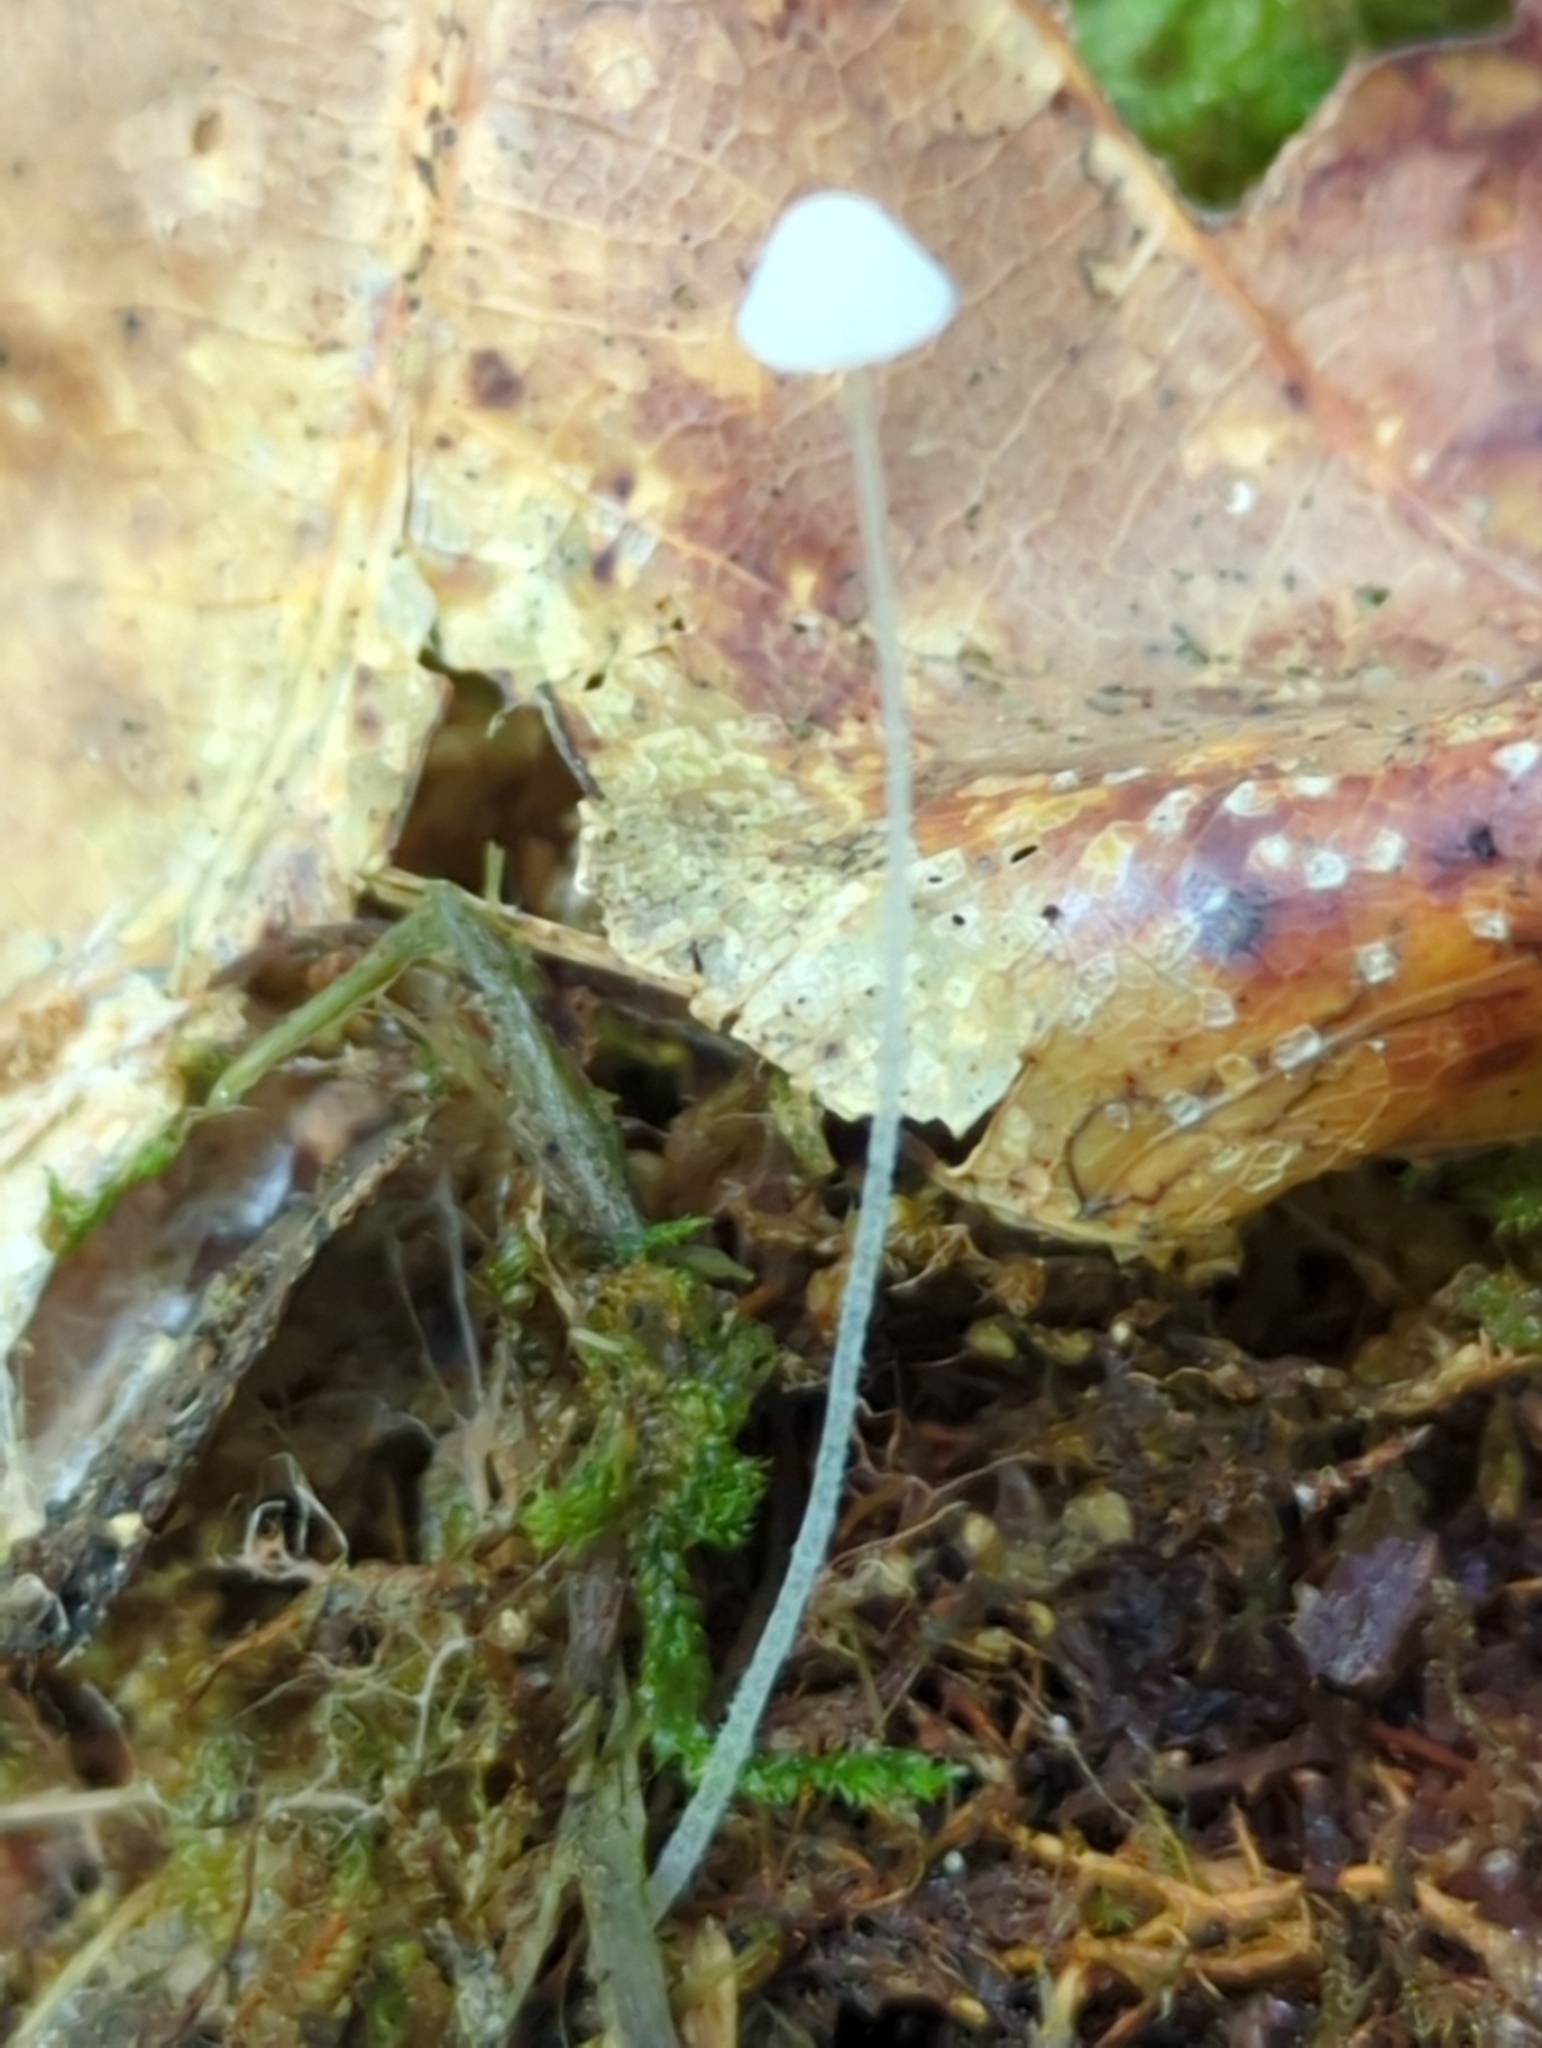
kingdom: Fungi
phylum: Basidiomycota
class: Agaricomycetes
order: Agaricales
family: Mycenaceae
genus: Mycena
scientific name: Mycena alphitophora
